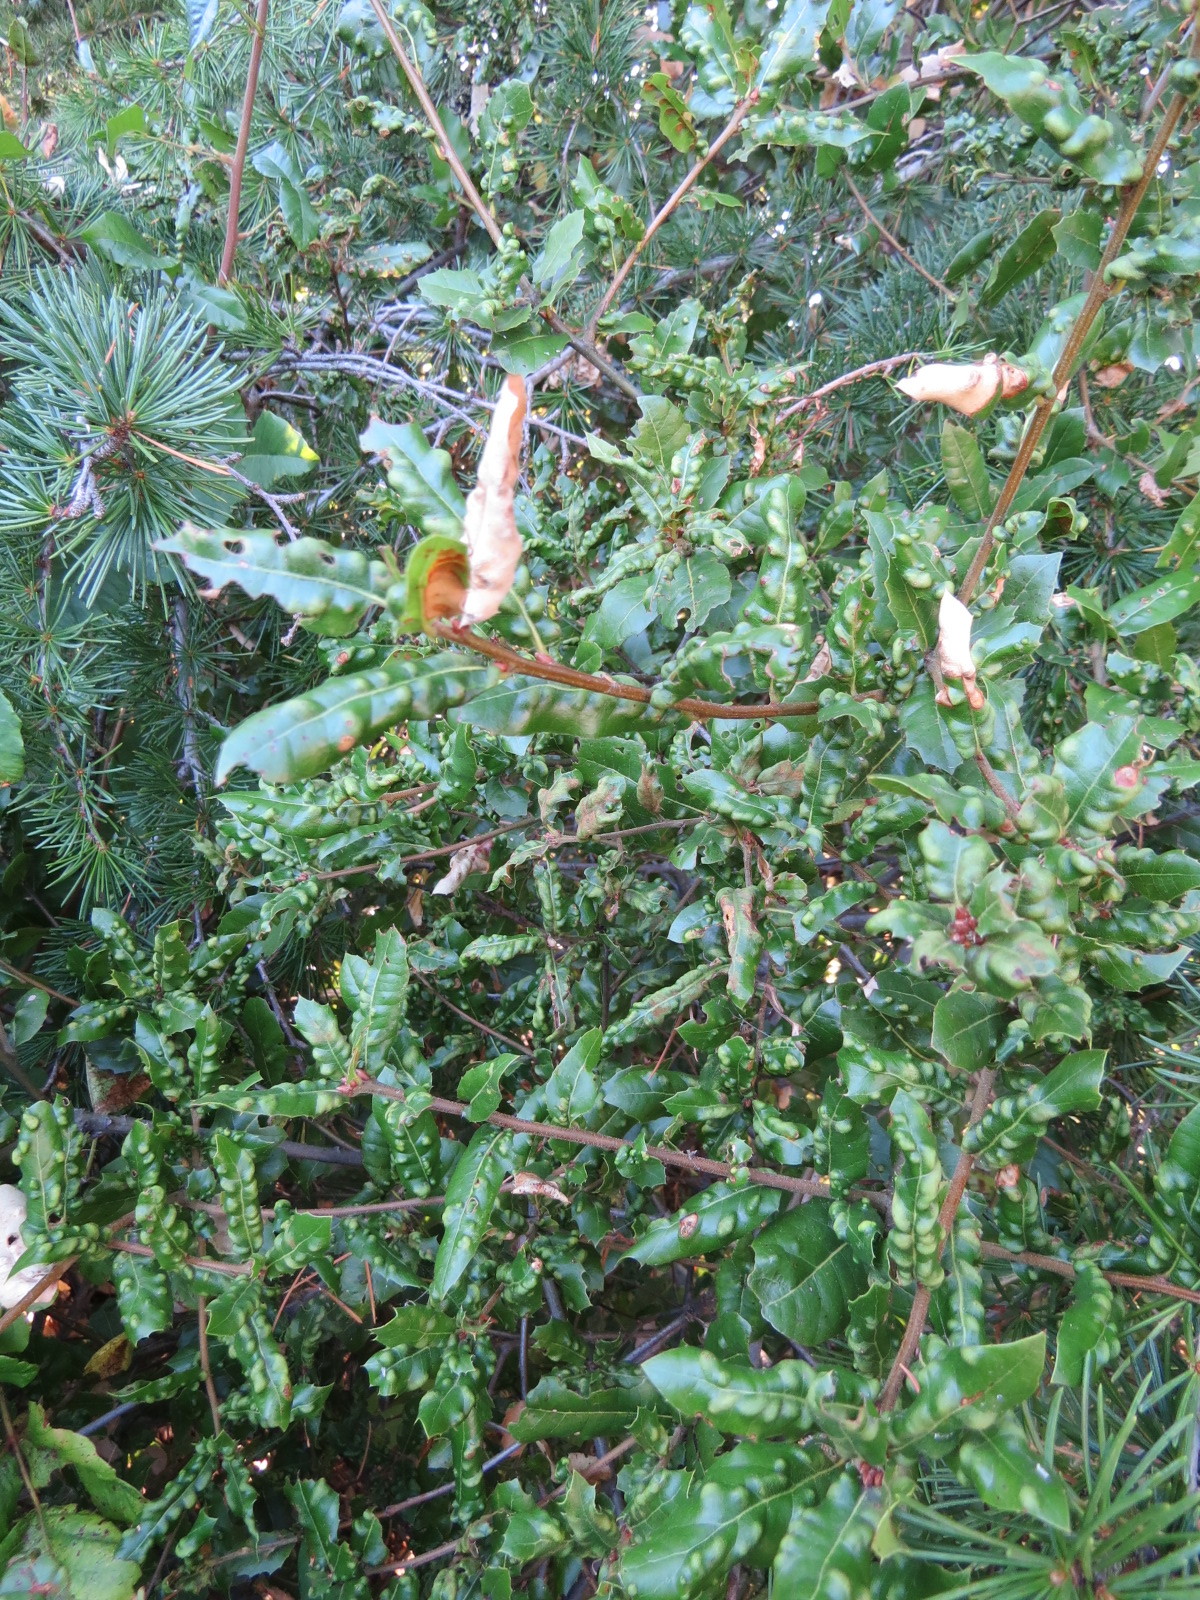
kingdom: Animalia
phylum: Arthropoda
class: Arachnida
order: Trombidiformes
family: Eriophyidae
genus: Aceria
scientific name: Aceria
